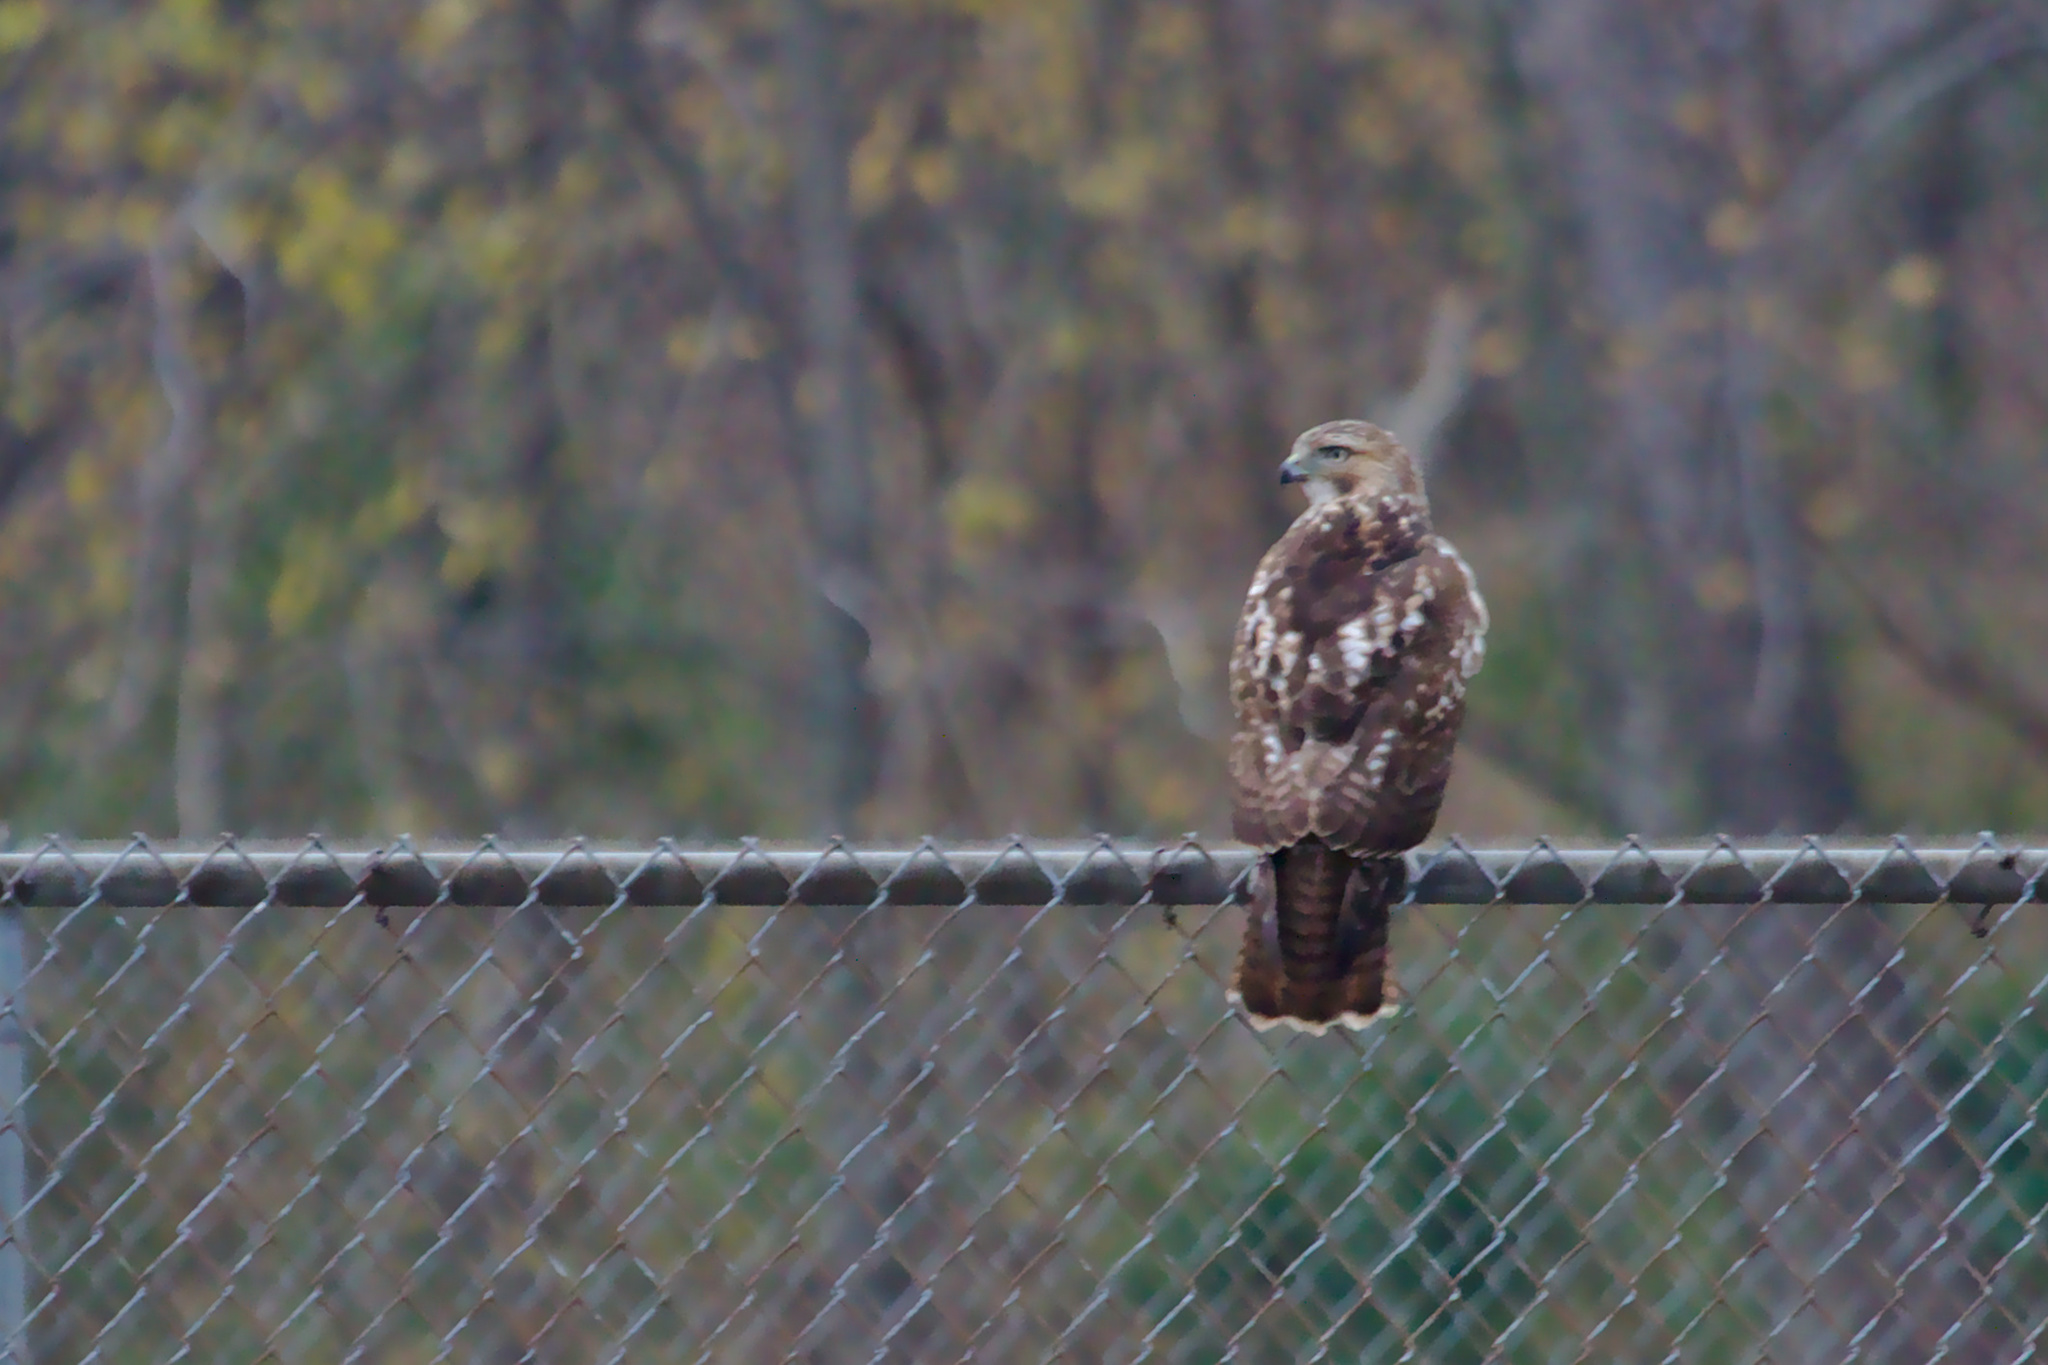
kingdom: Animalia
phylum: Chordata
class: Aves
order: Accipitriformes
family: Accipitridae
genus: Buteo
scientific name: Buteo jamaicensis
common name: Red-tailed hawk
